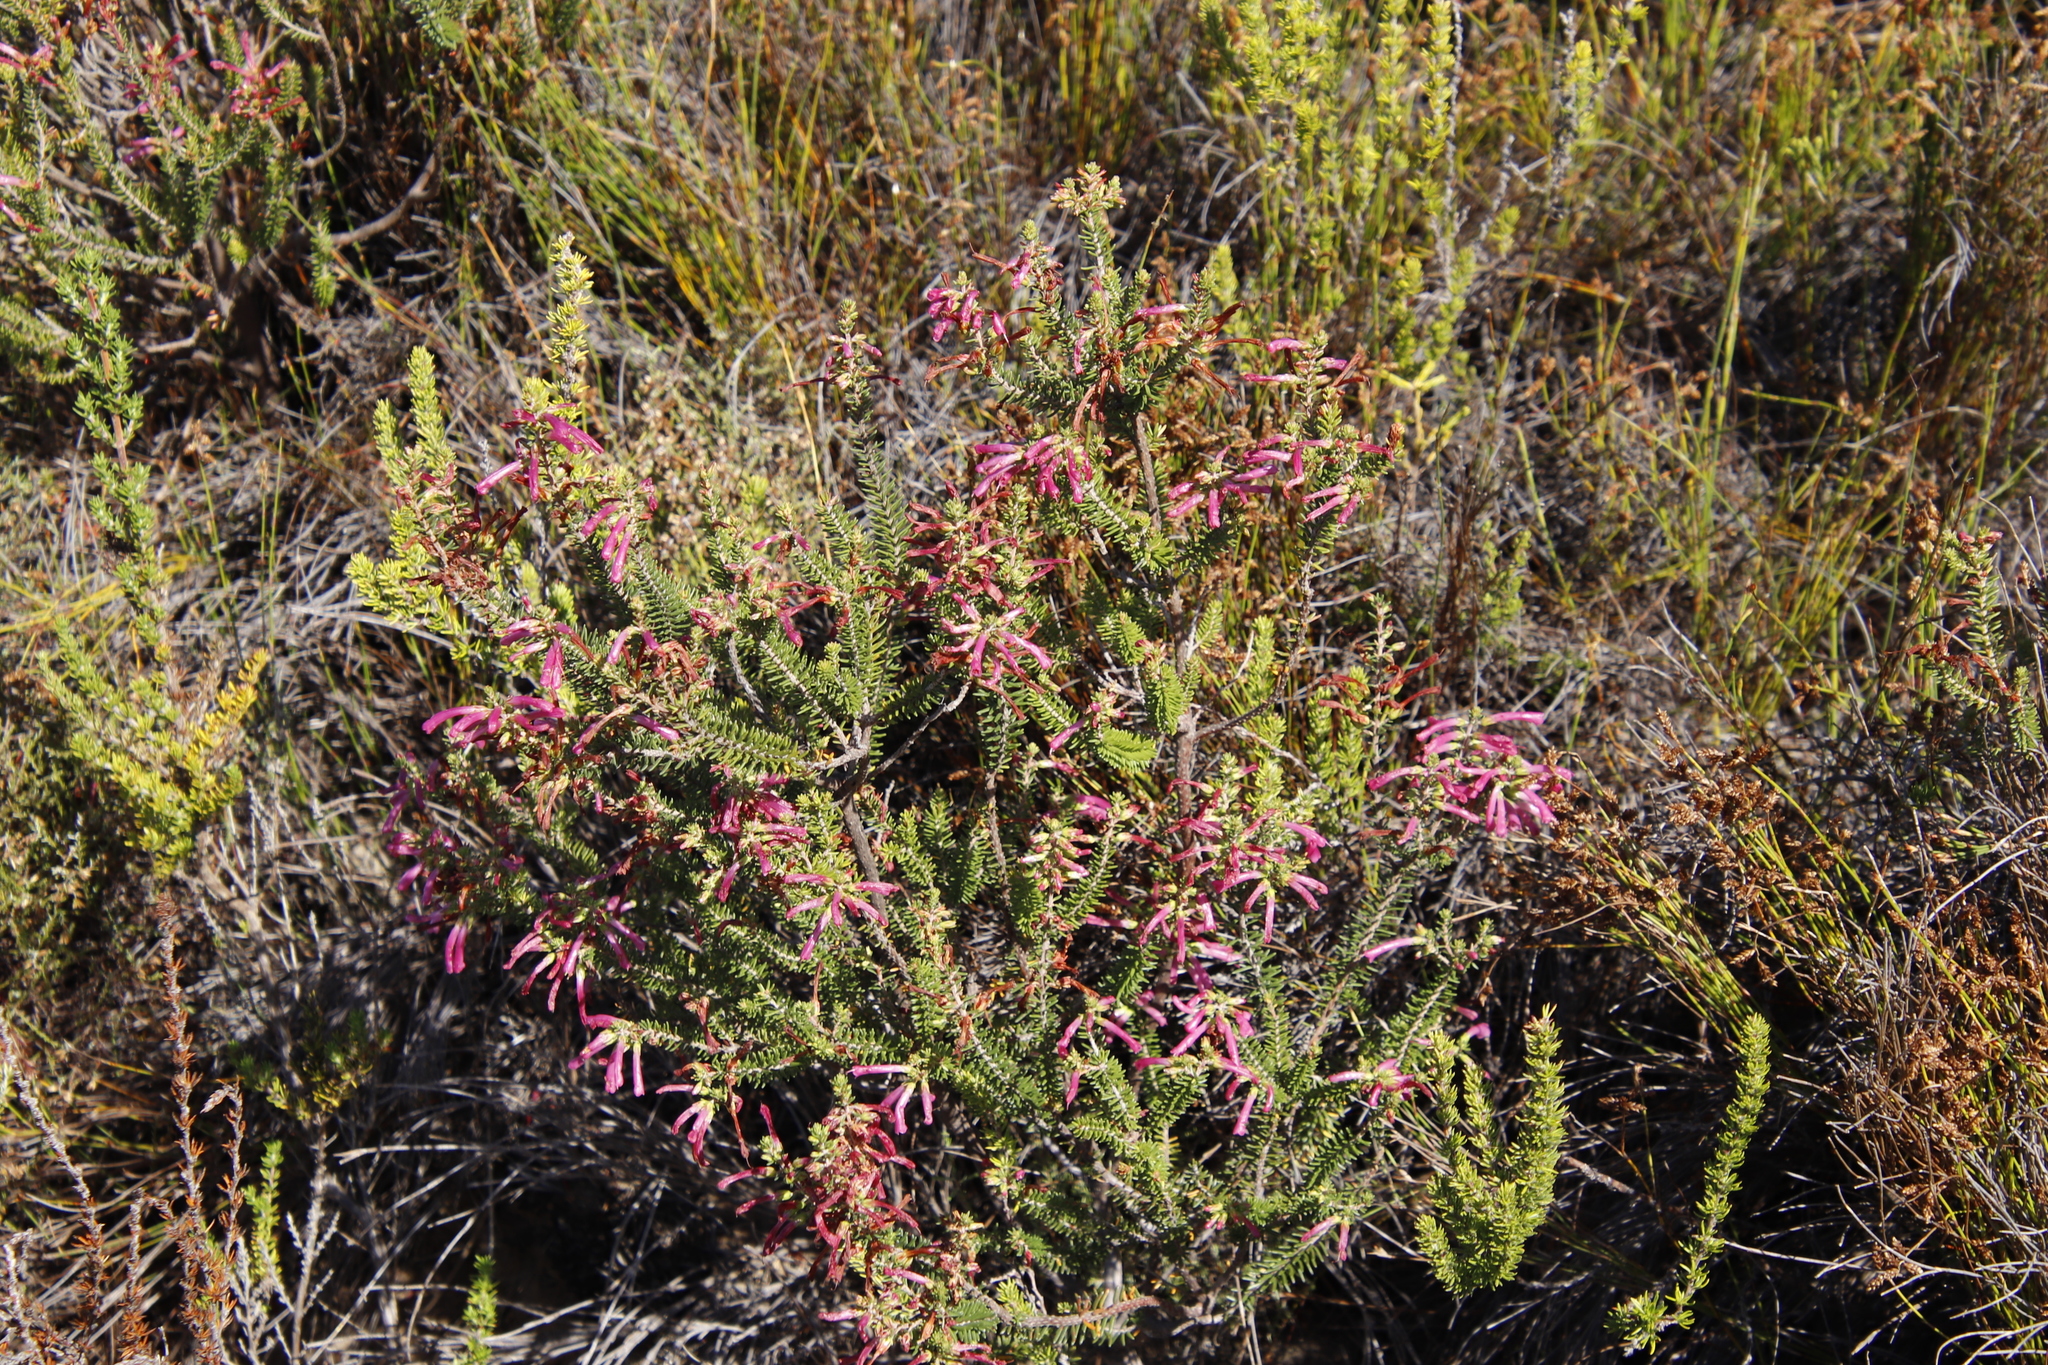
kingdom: Plantae
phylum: Tracheophyta
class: Magnoliopsida
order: Ericales
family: Ericaceae
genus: Erica
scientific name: Erica abietina
